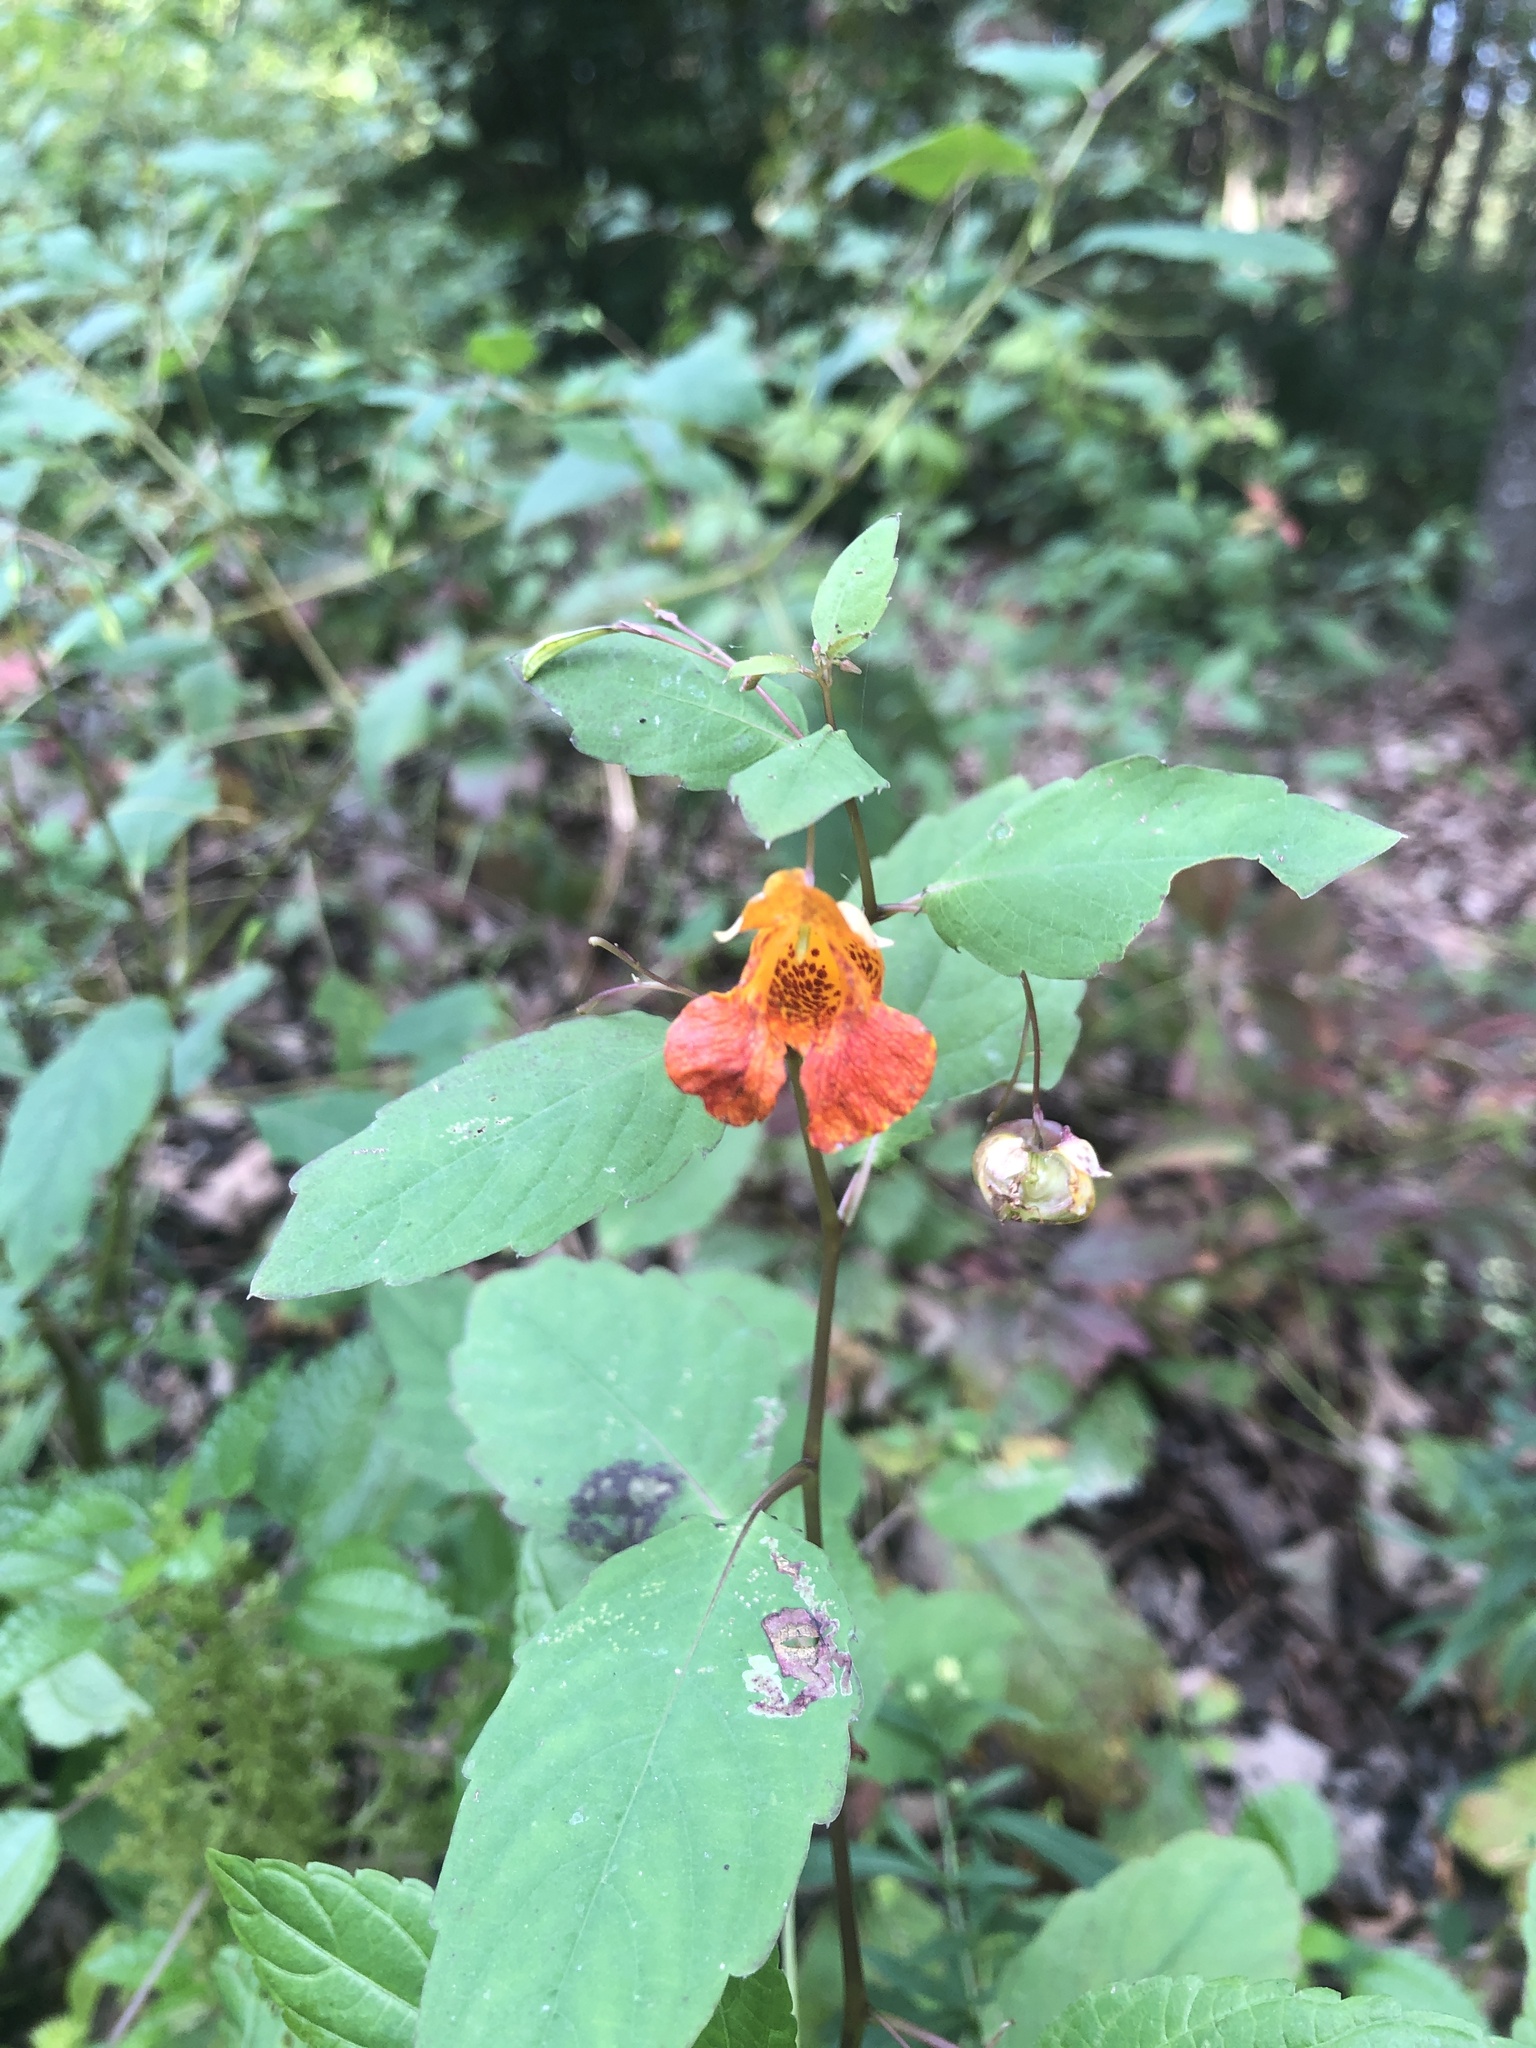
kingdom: Plantae
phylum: Tracheophyta
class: Magnoliopsida
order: Ericales
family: Balsaminaceae
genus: Impatiens
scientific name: Impatiens capensis
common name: Orange balsam
